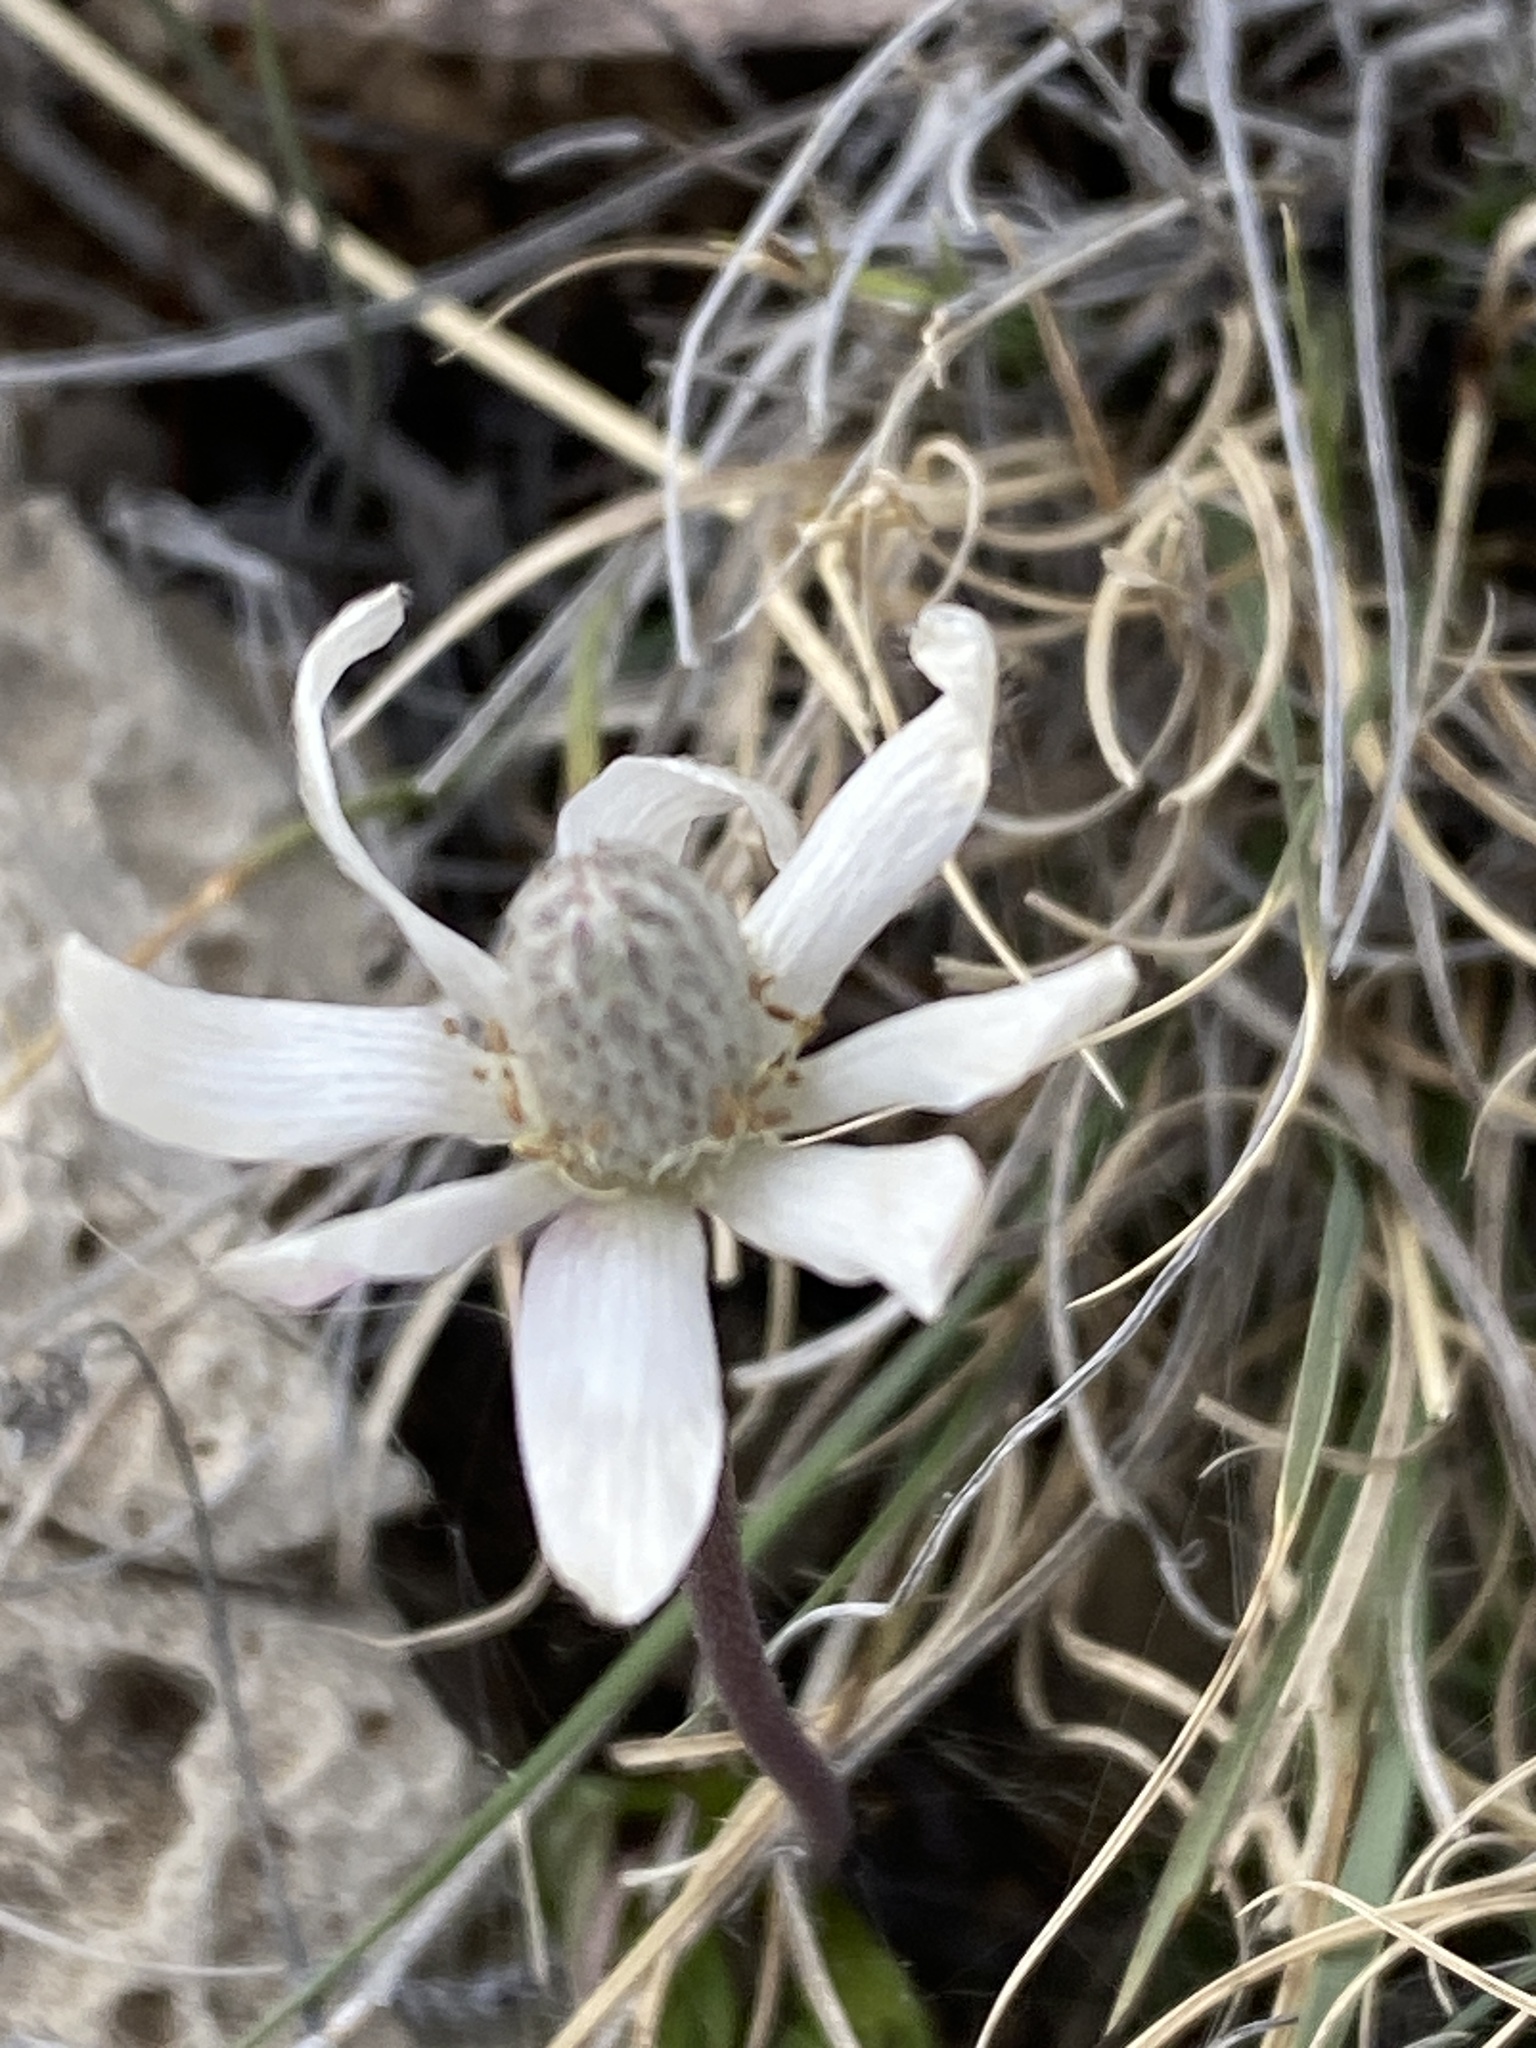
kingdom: Plantae
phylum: Tracheophyta
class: Magnoliopsida
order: Ranunculales
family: Ranunculaceae
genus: Anemone
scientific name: Anemone tuberosa
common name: Desert anemone
